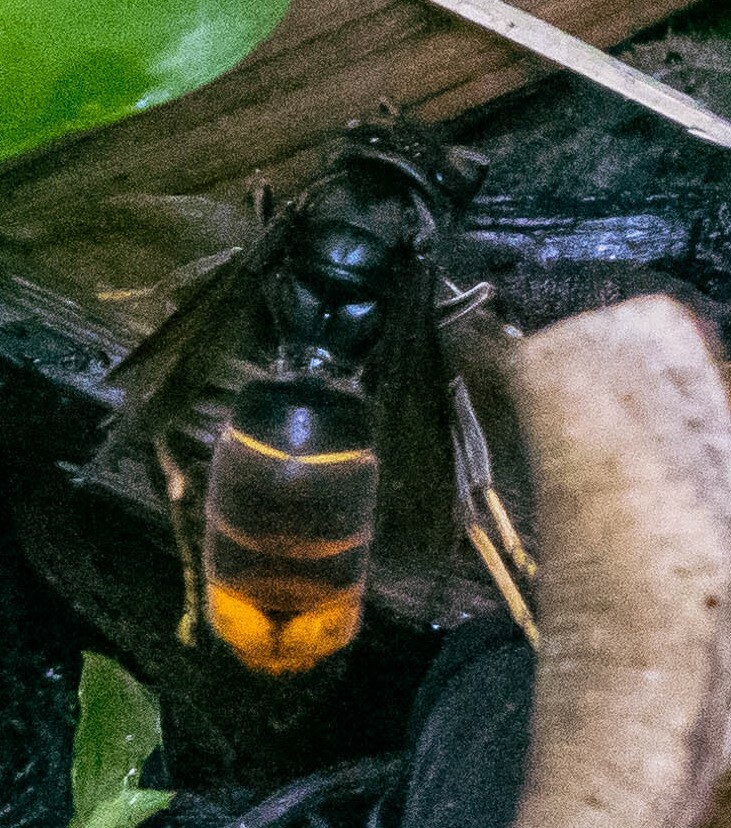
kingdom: Animalia
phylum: Arthropoda
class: Insecta
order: Hymenoptera
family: Vespidae
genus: Vespa
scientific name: Vespa velutina
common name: Asian hornet
